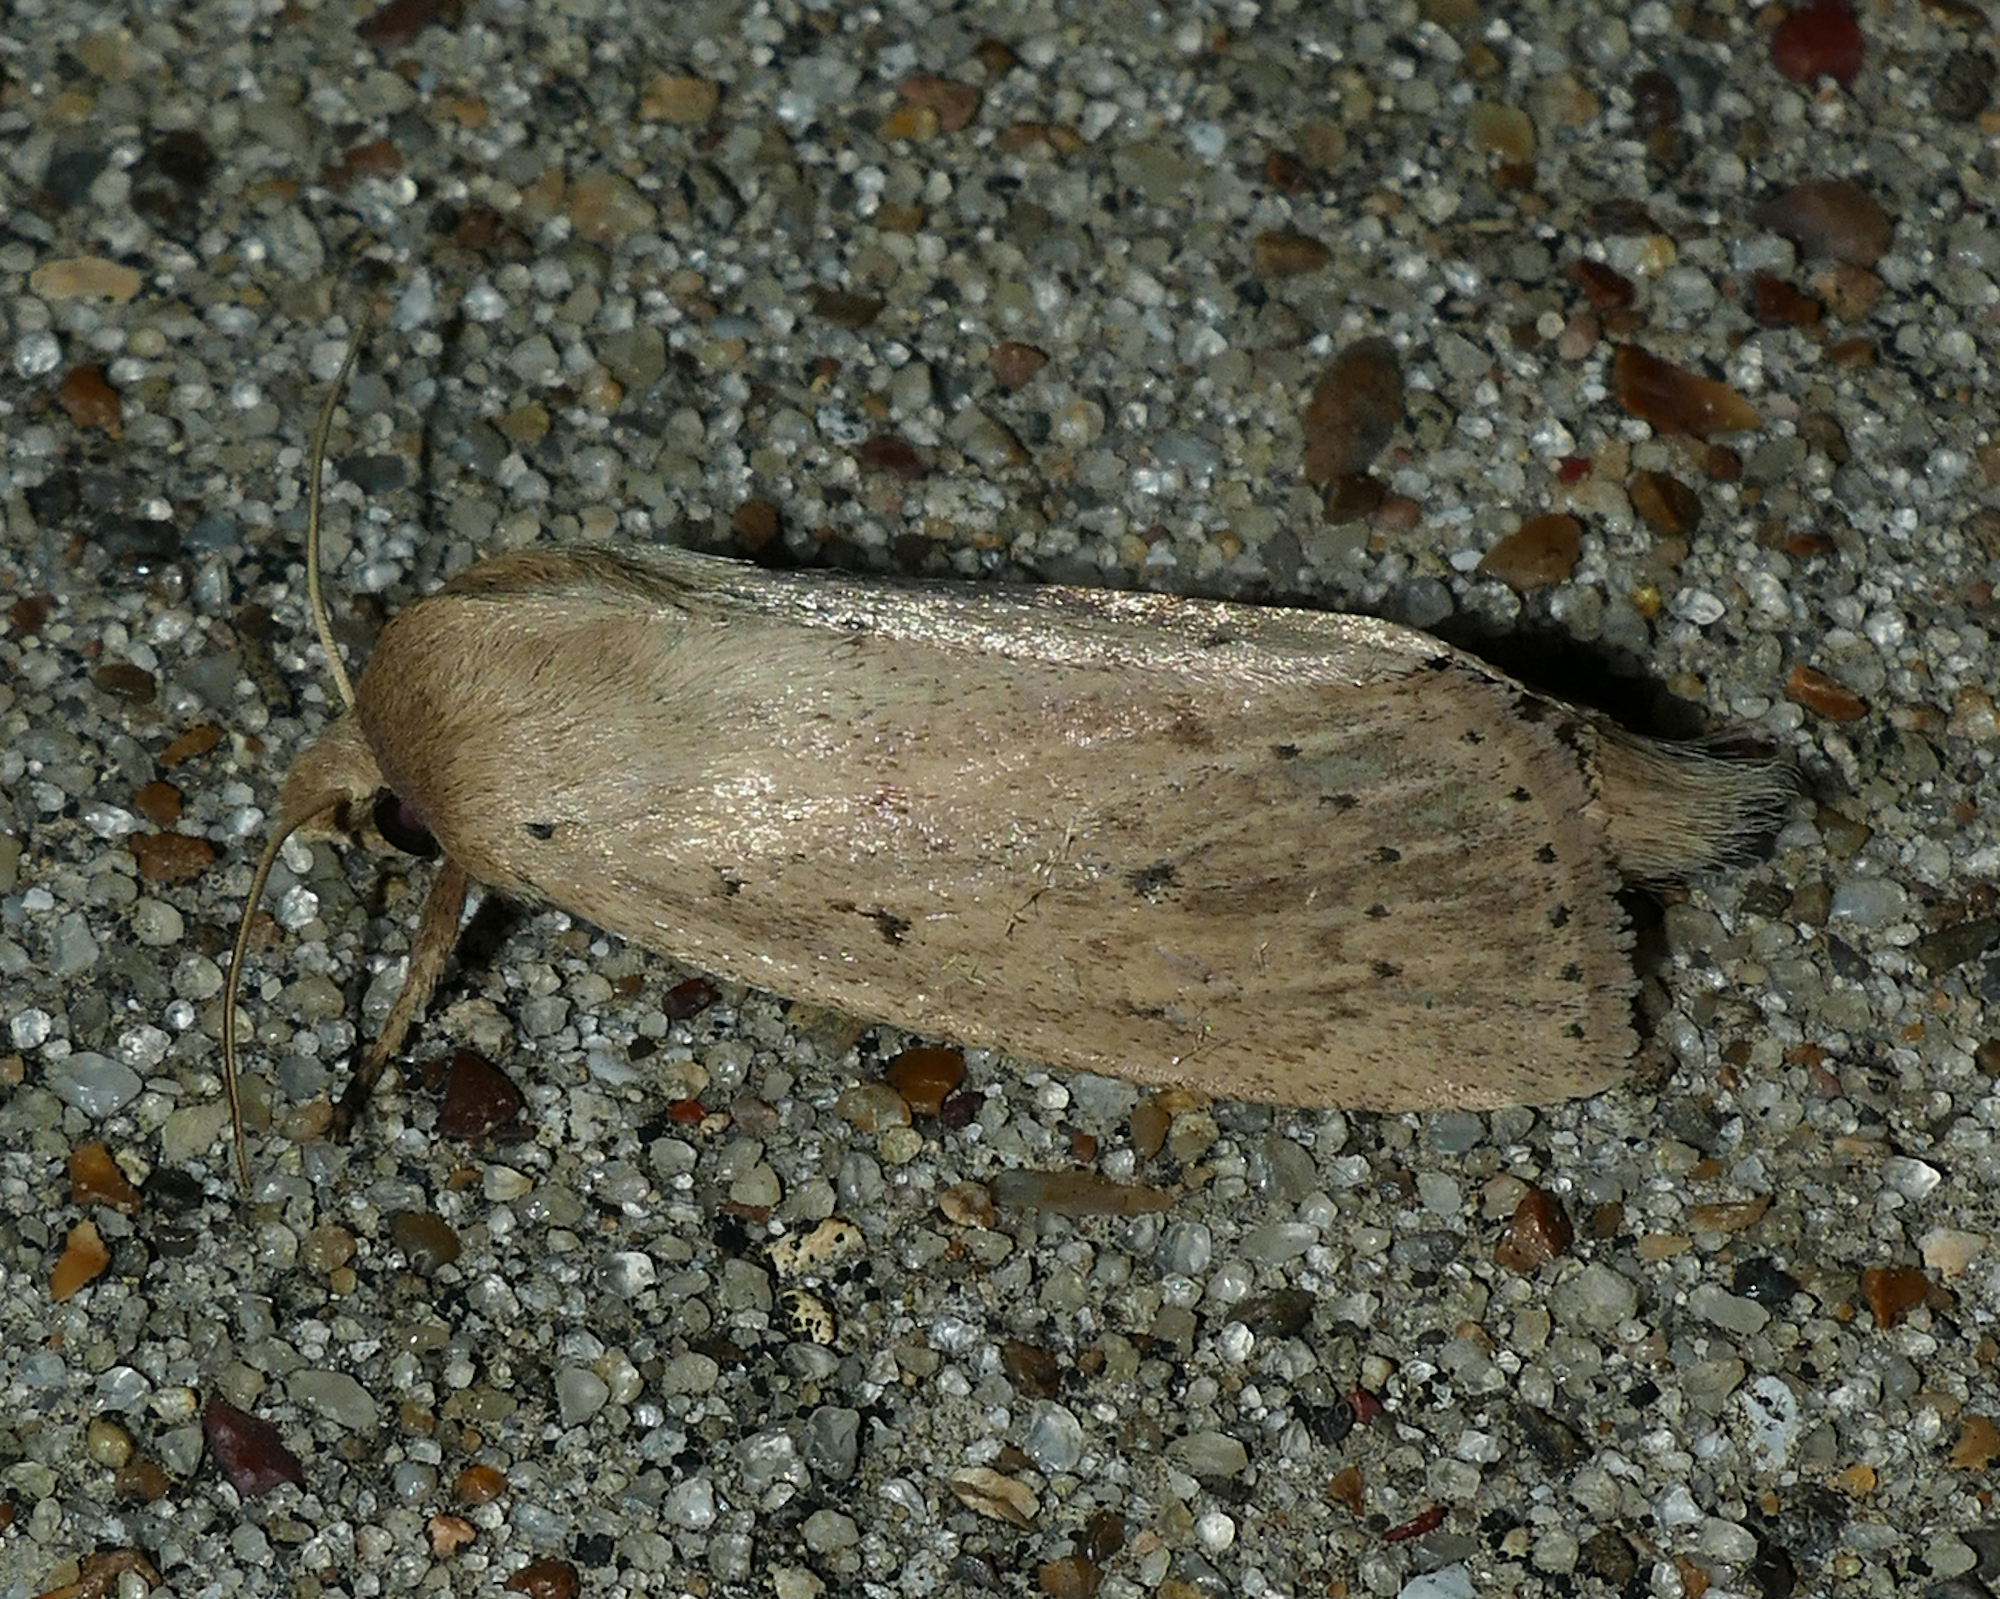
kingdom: Animalia
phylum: Arthropoda
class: Insecta
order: Lepidoptera
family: Noctuidae
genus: Globia
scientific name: Globia oblonga
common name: Oblong sedge borer moth
